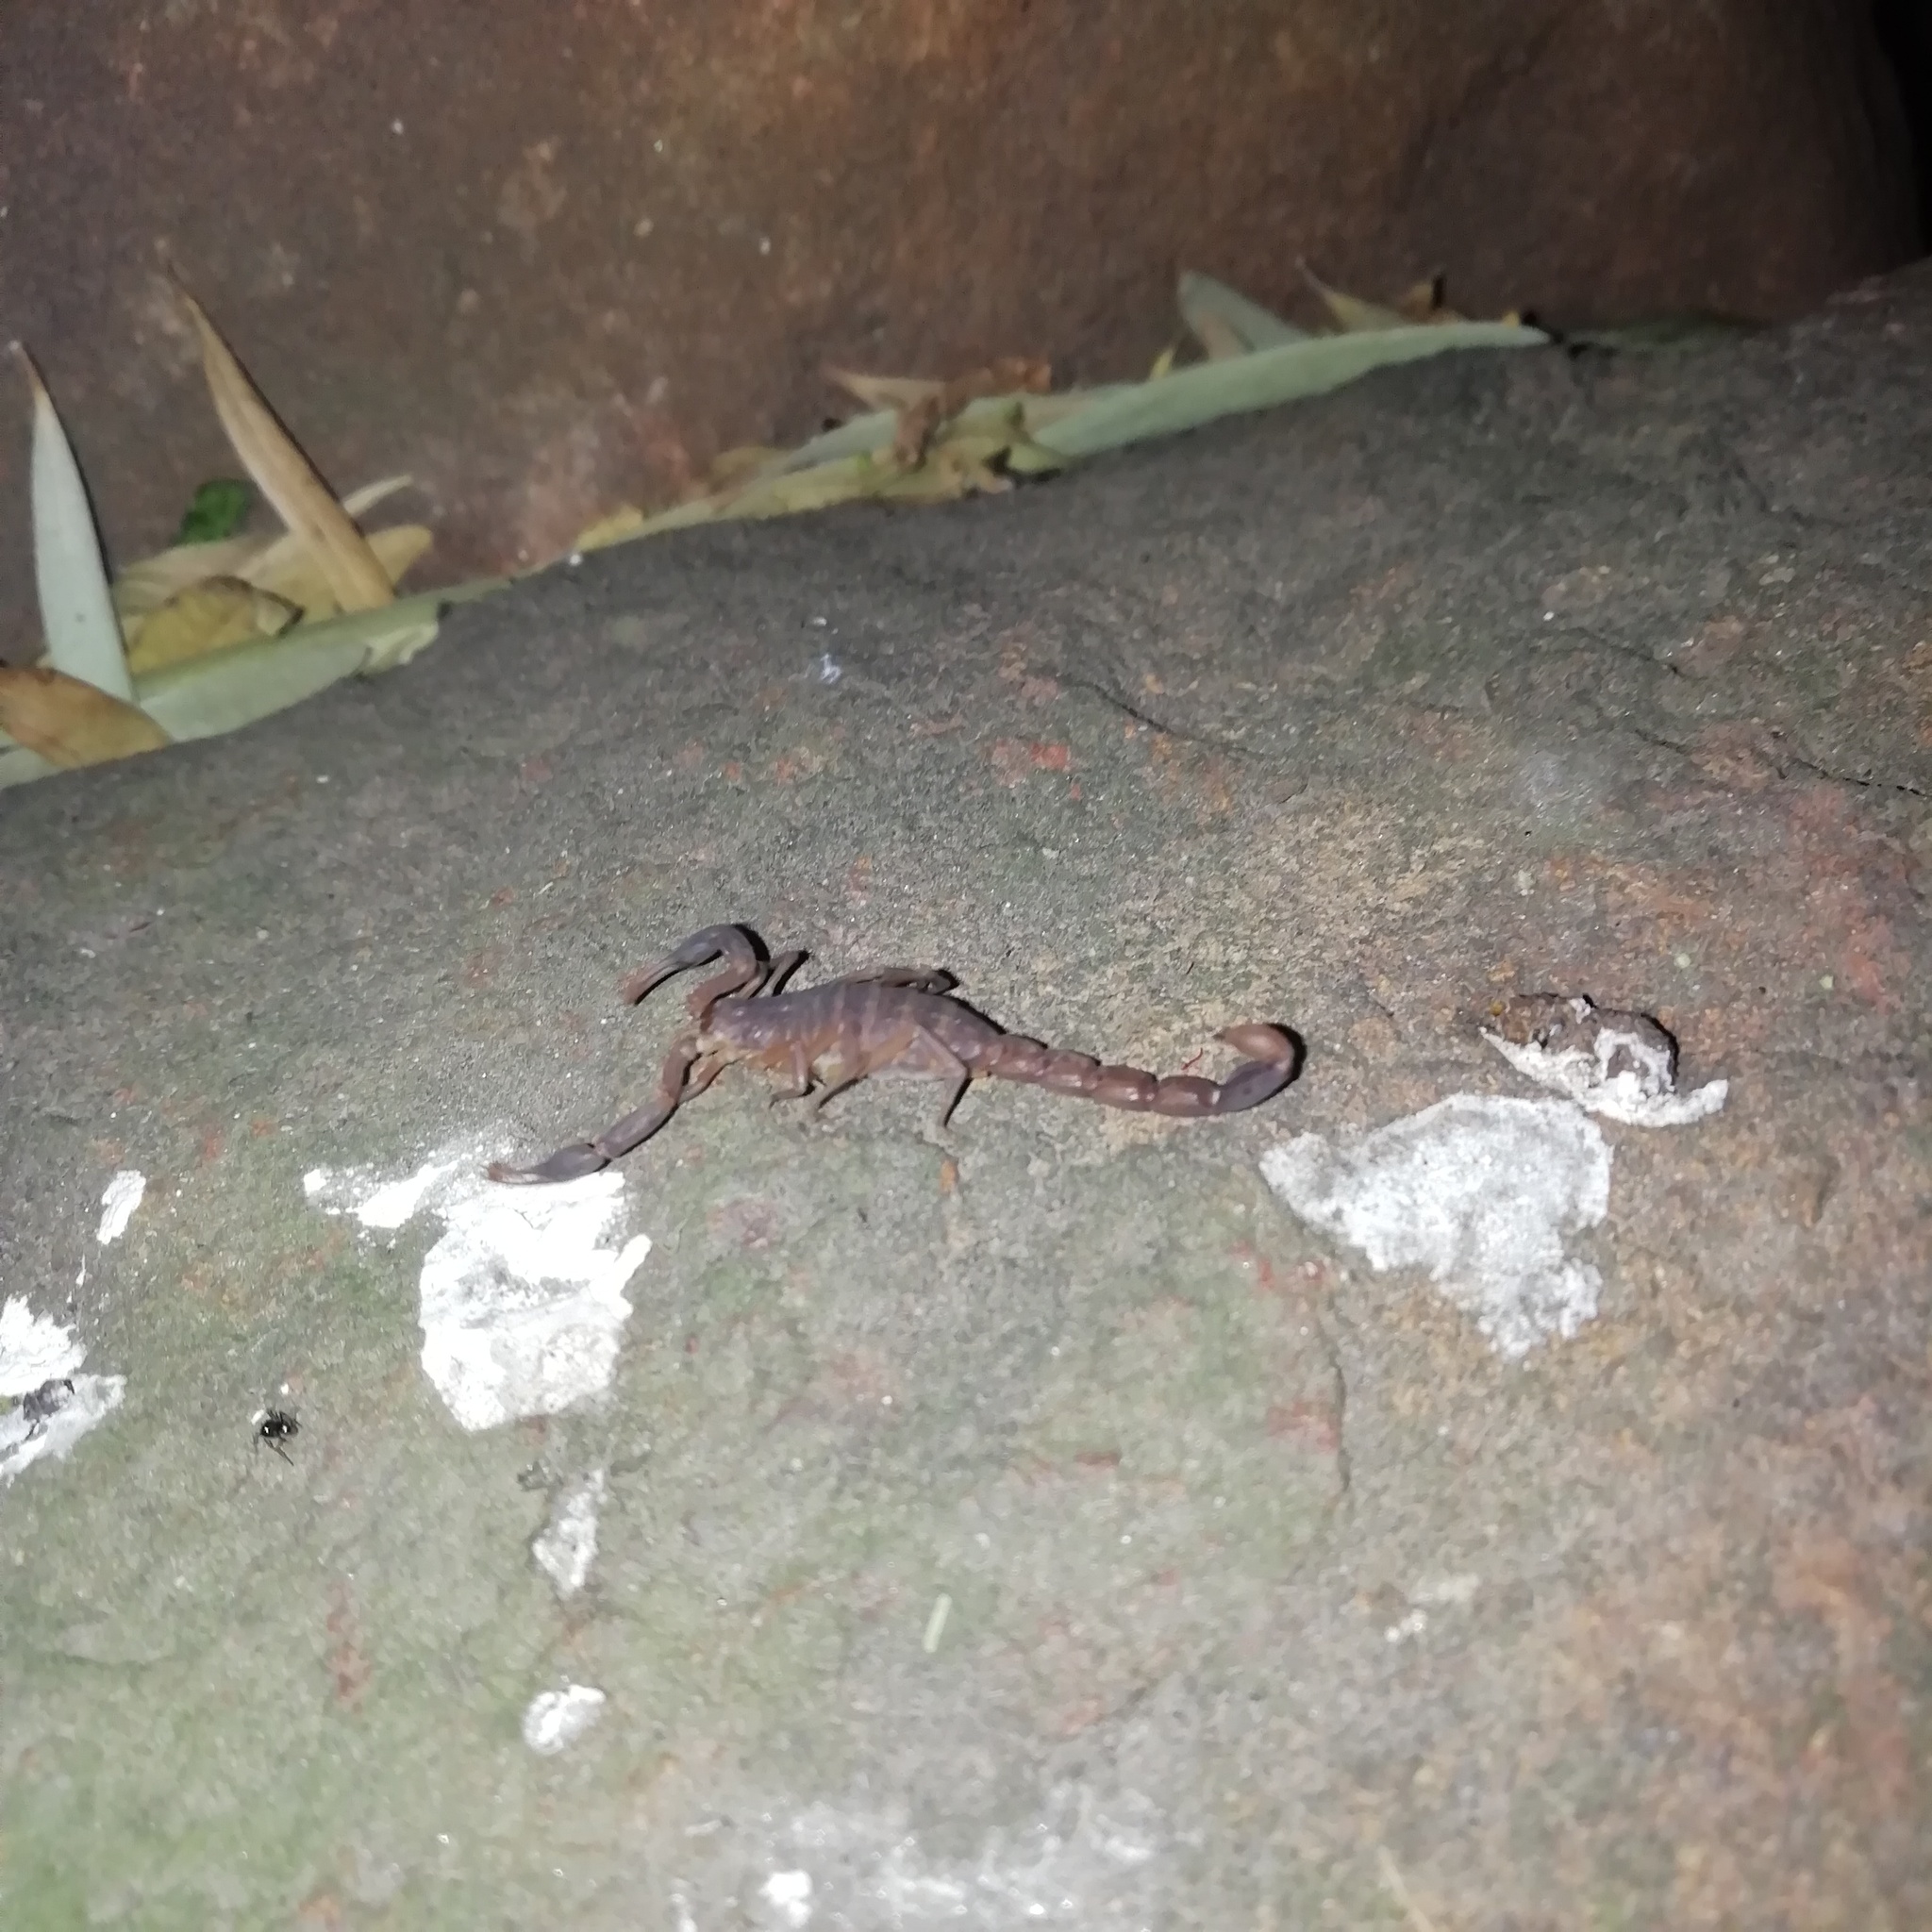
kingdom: Animalia
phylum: Arthropoda
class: Arachnida
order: Scorpiones
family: Buthidae
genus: Pseudolychas
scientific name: Pseudolychas ochraceus
